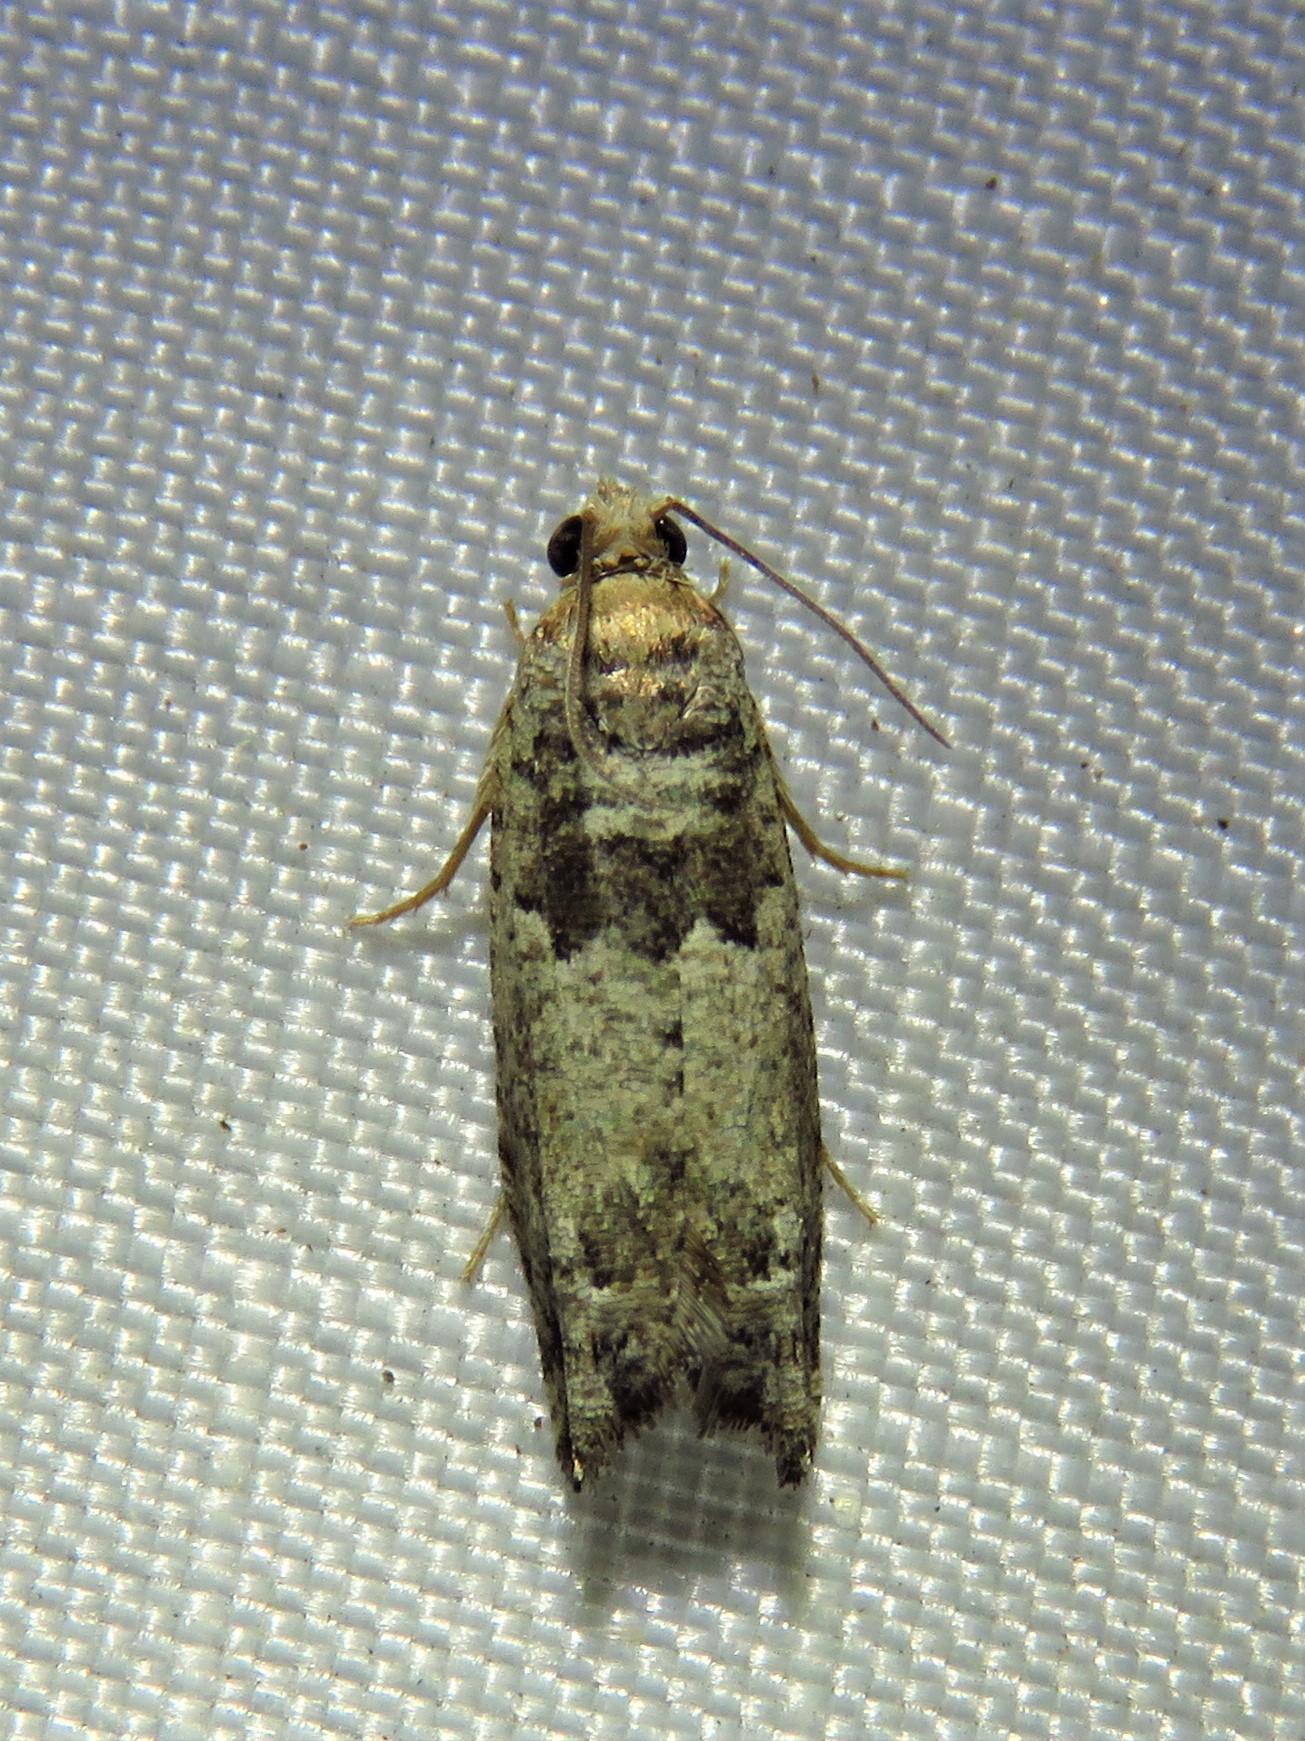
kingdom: Animalia
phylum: Arthropoda
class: Insecta
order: Lepidoptera
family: Tortricidae
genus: Pseudexentera
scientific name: Pseudexentera knudsoni
